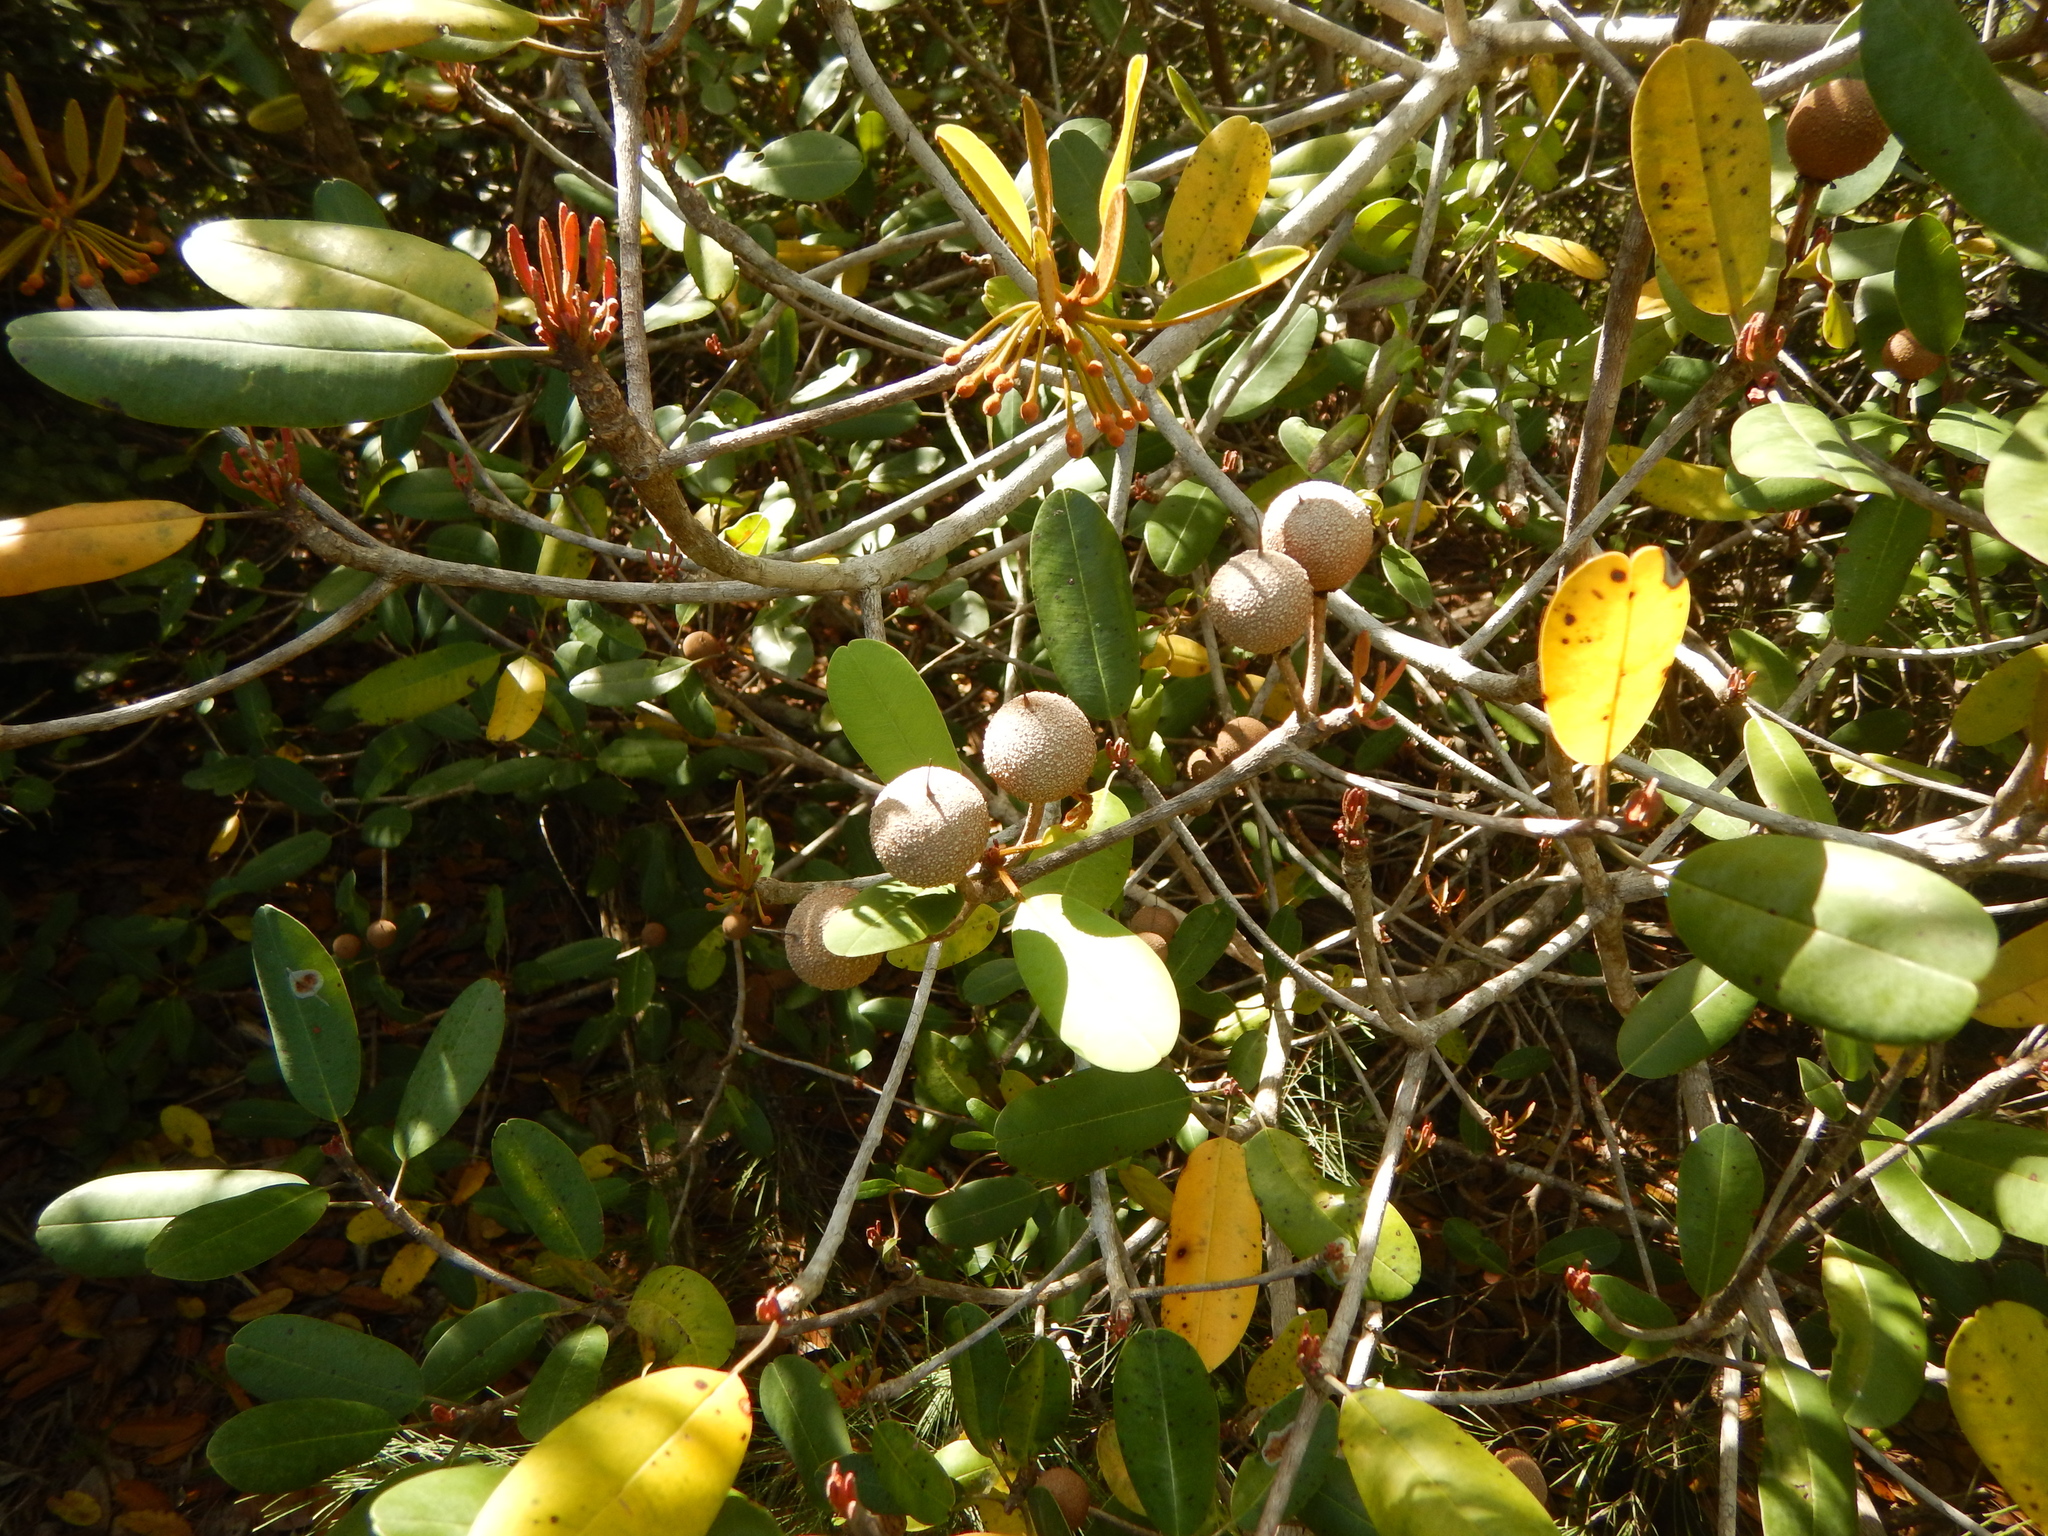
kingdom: Plantae
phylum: Tracheophyta
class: Magnoliopsida
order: Ericales
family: Sapotaceae
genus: Manilkara
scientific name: Manilkara jaimiqui
